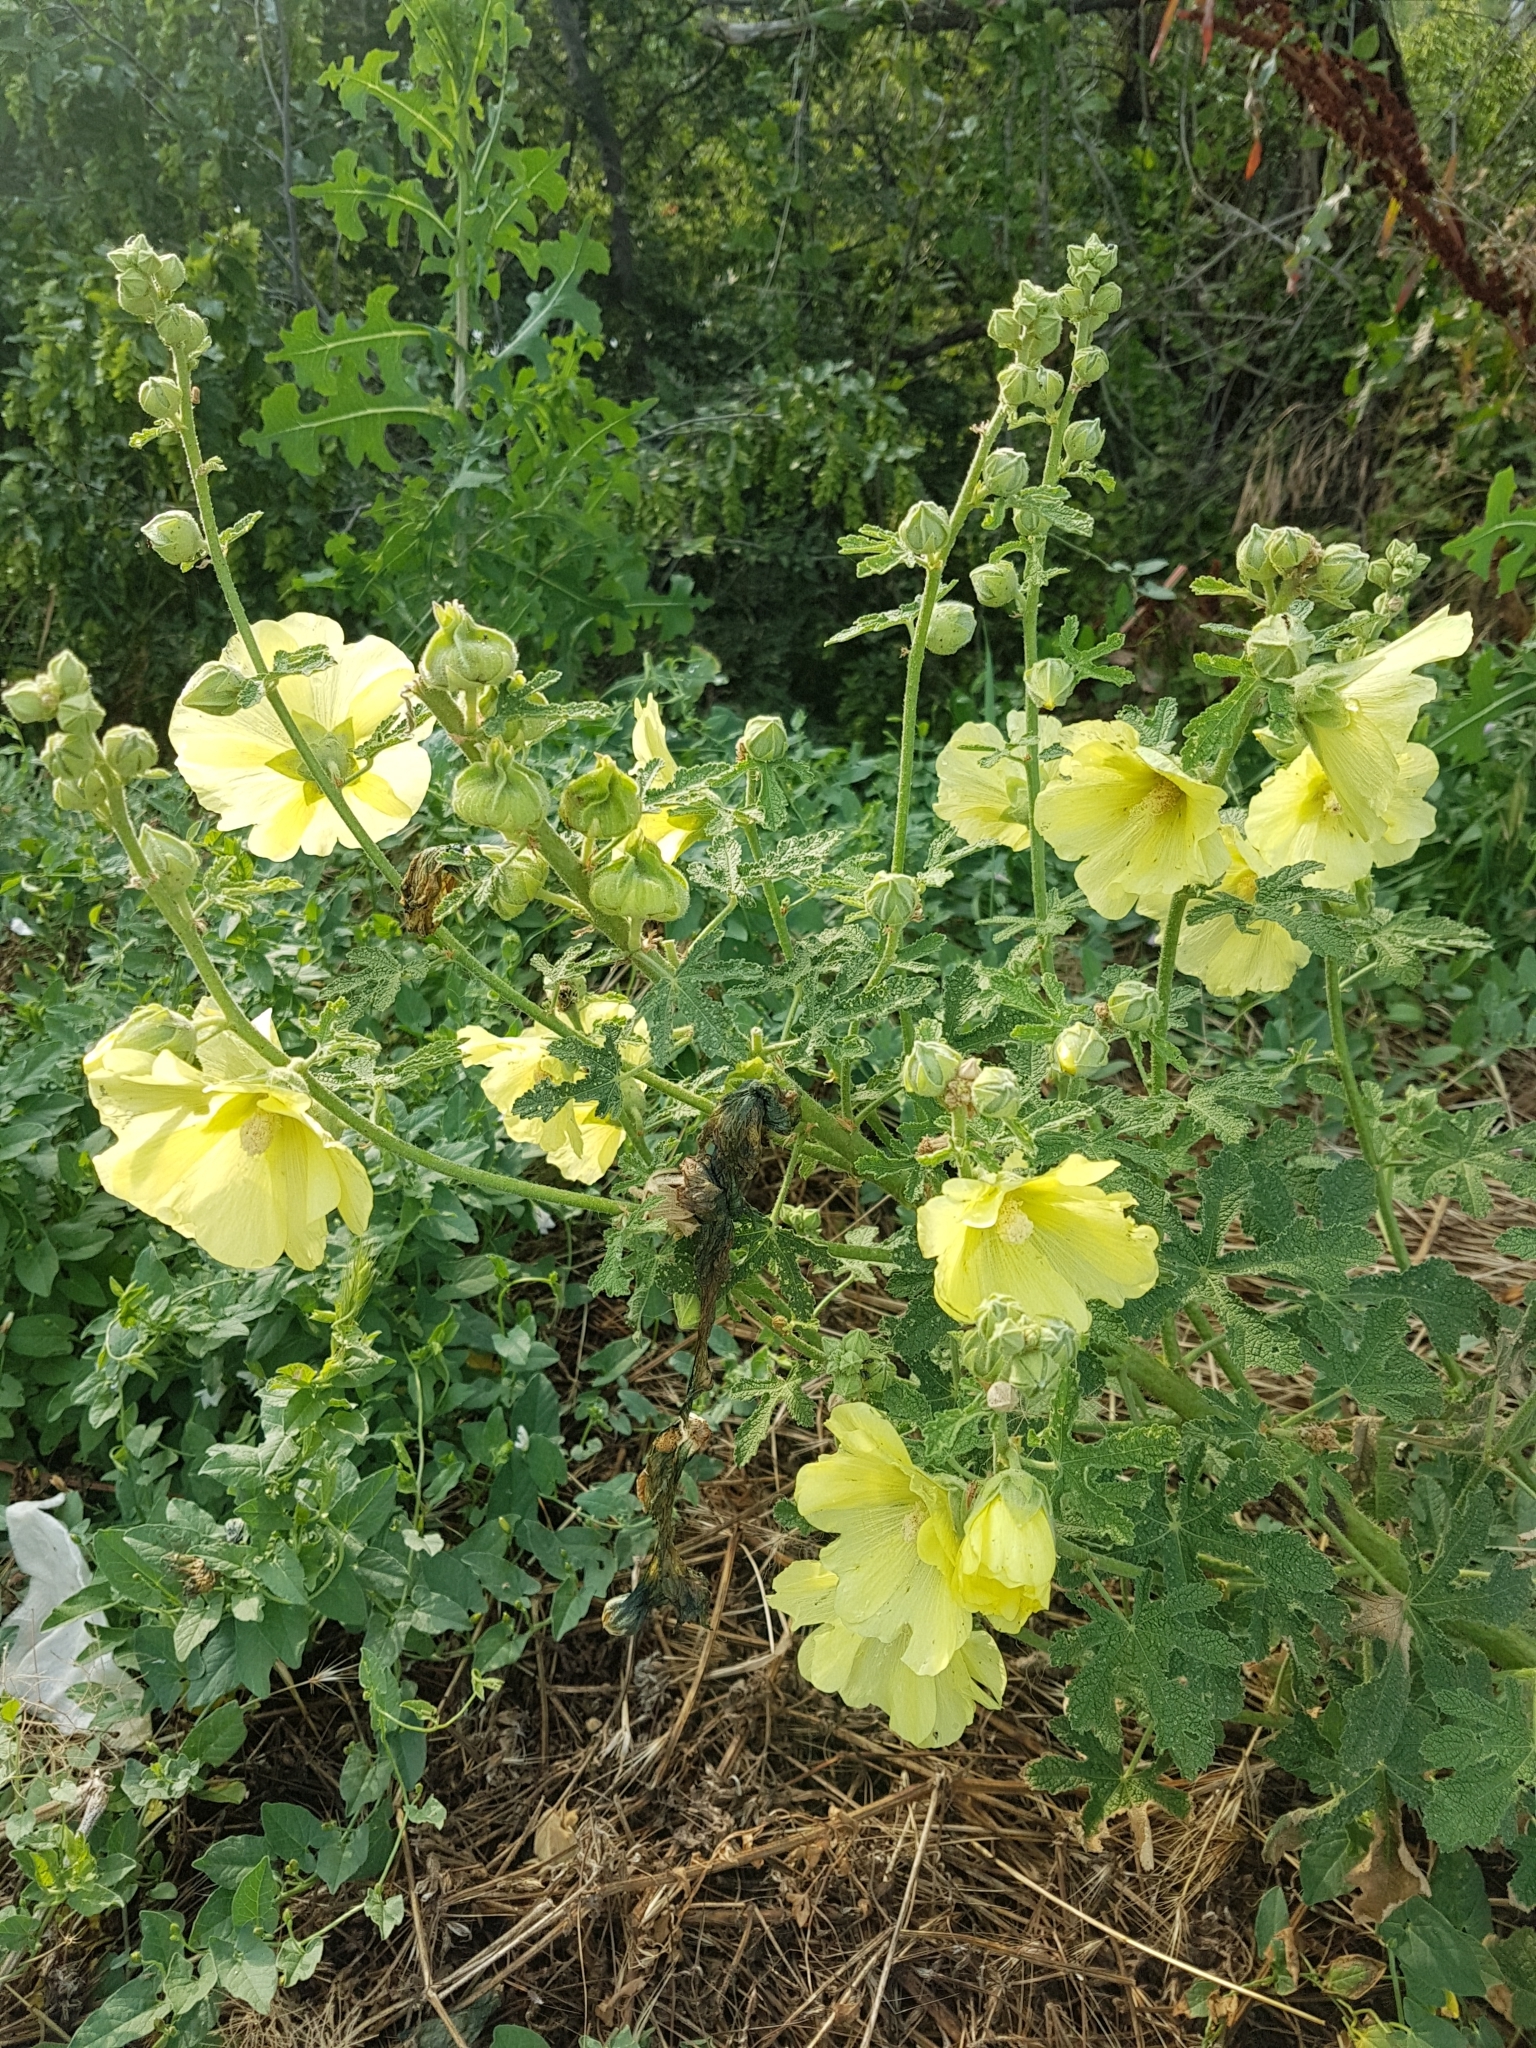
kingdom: Plantae
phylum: Tracheophyta
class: Magnoliopsida
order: Malvales
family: Malvaceae
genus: Alcea
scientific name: Alcea rugosa
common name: Russian hollyhock
